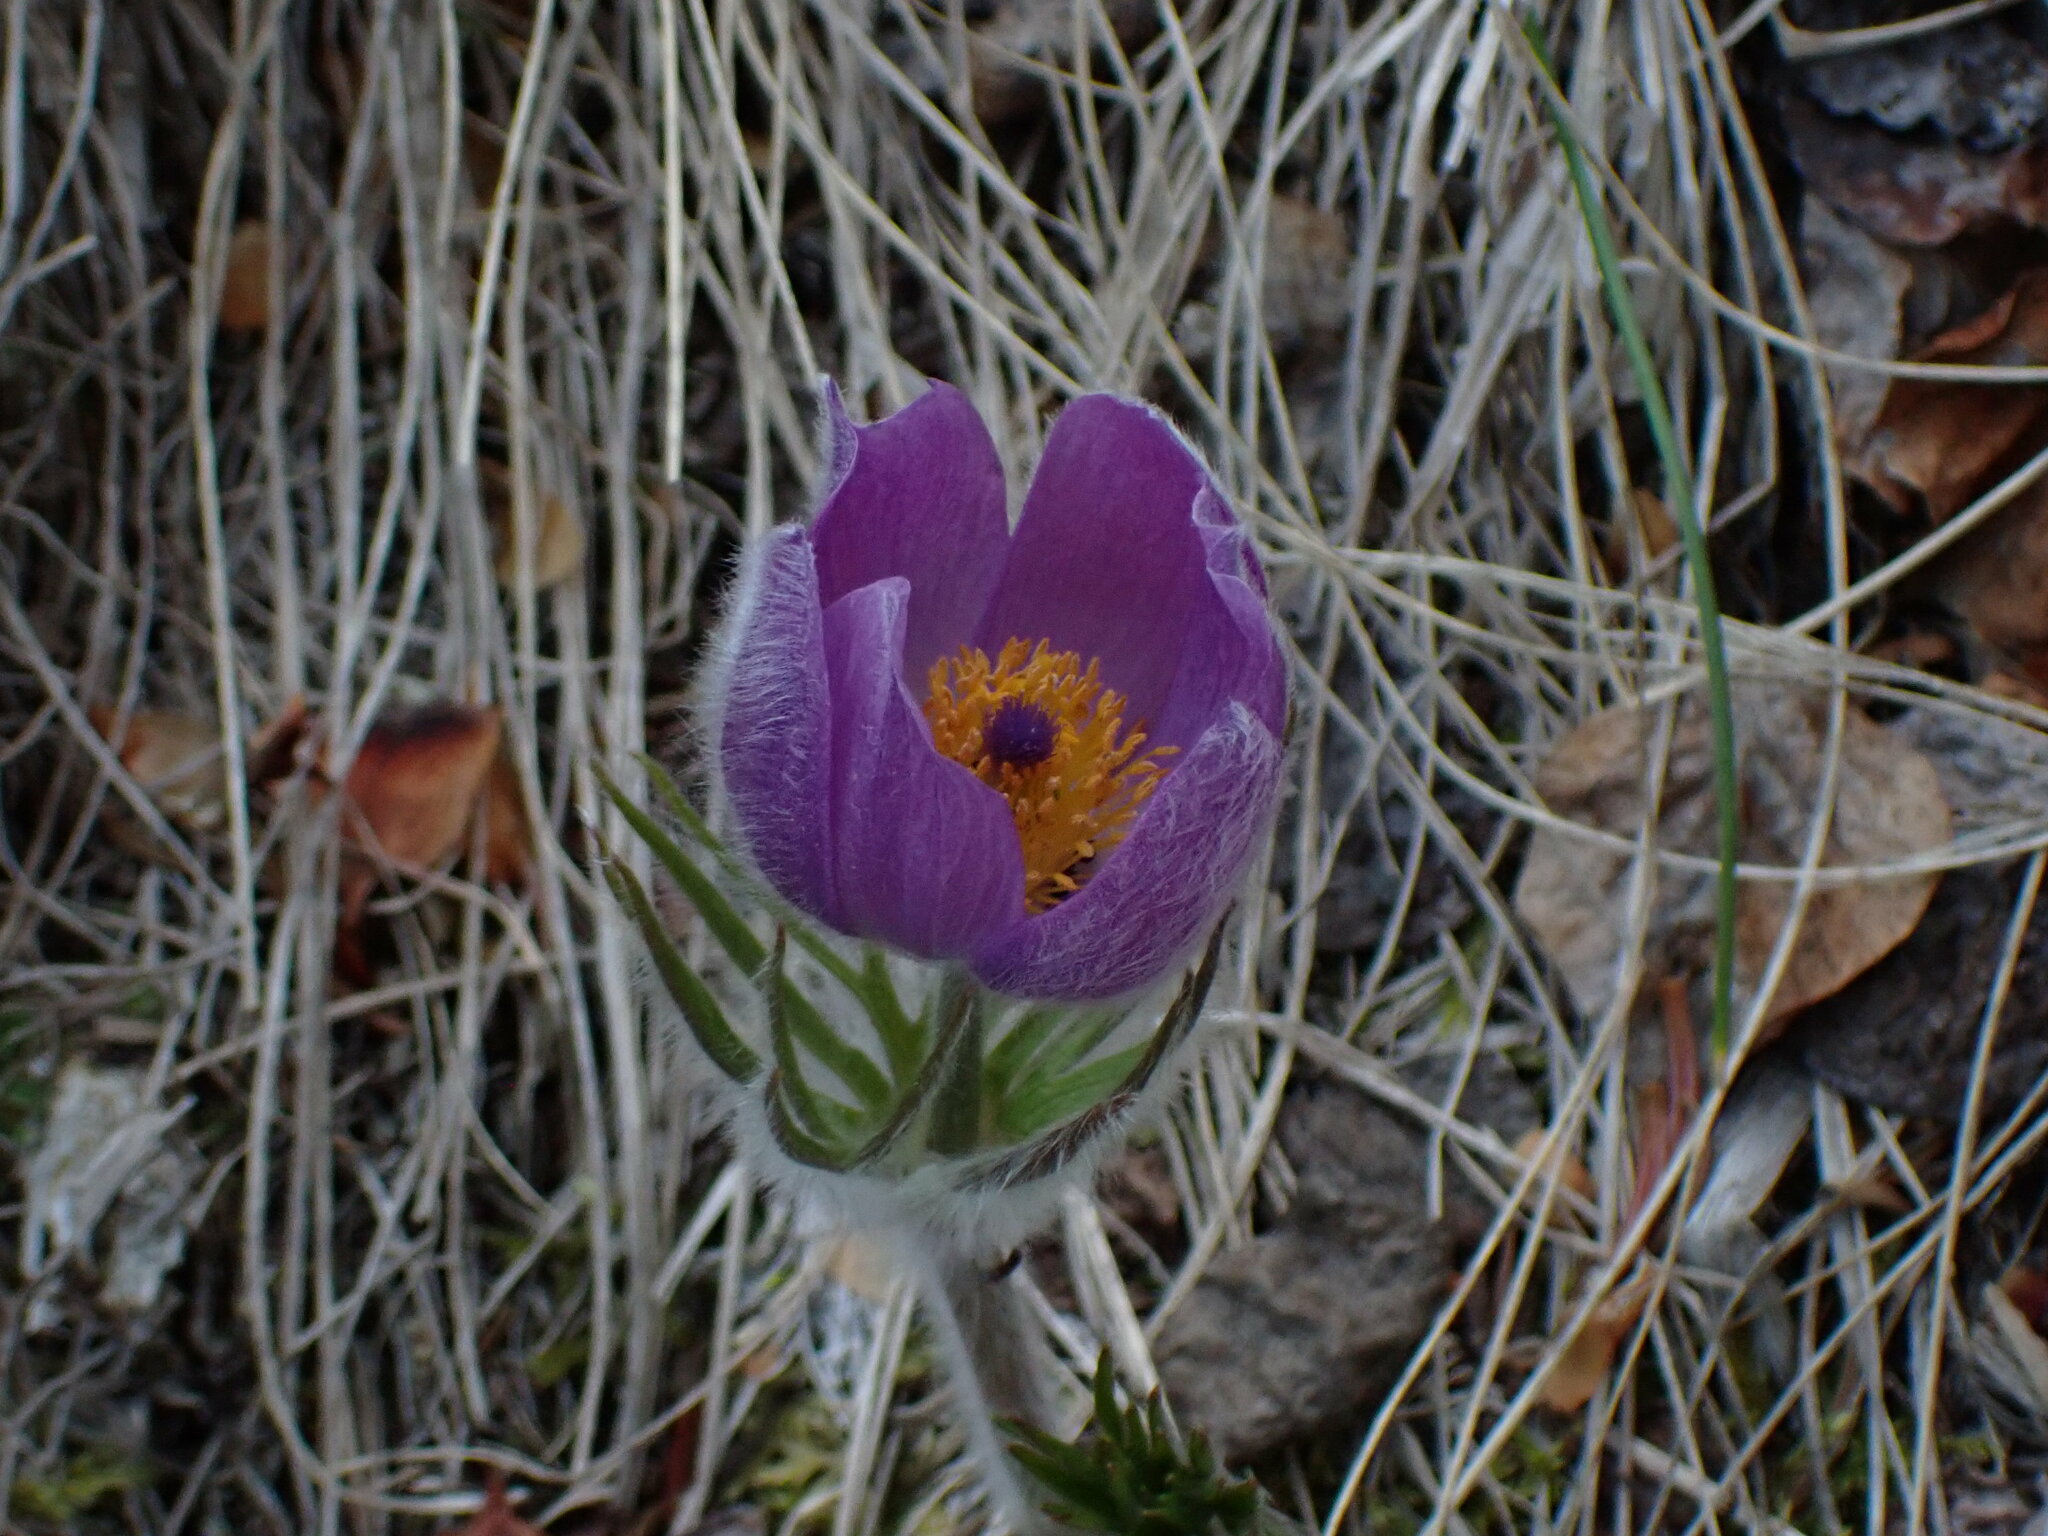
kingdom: Plantae
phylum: Tracheophyta
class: Magnoliopsida
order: Ranunculales
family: Ranunculaceae
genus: Pulsatilla
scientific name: Pulsatilla nuttalliana
